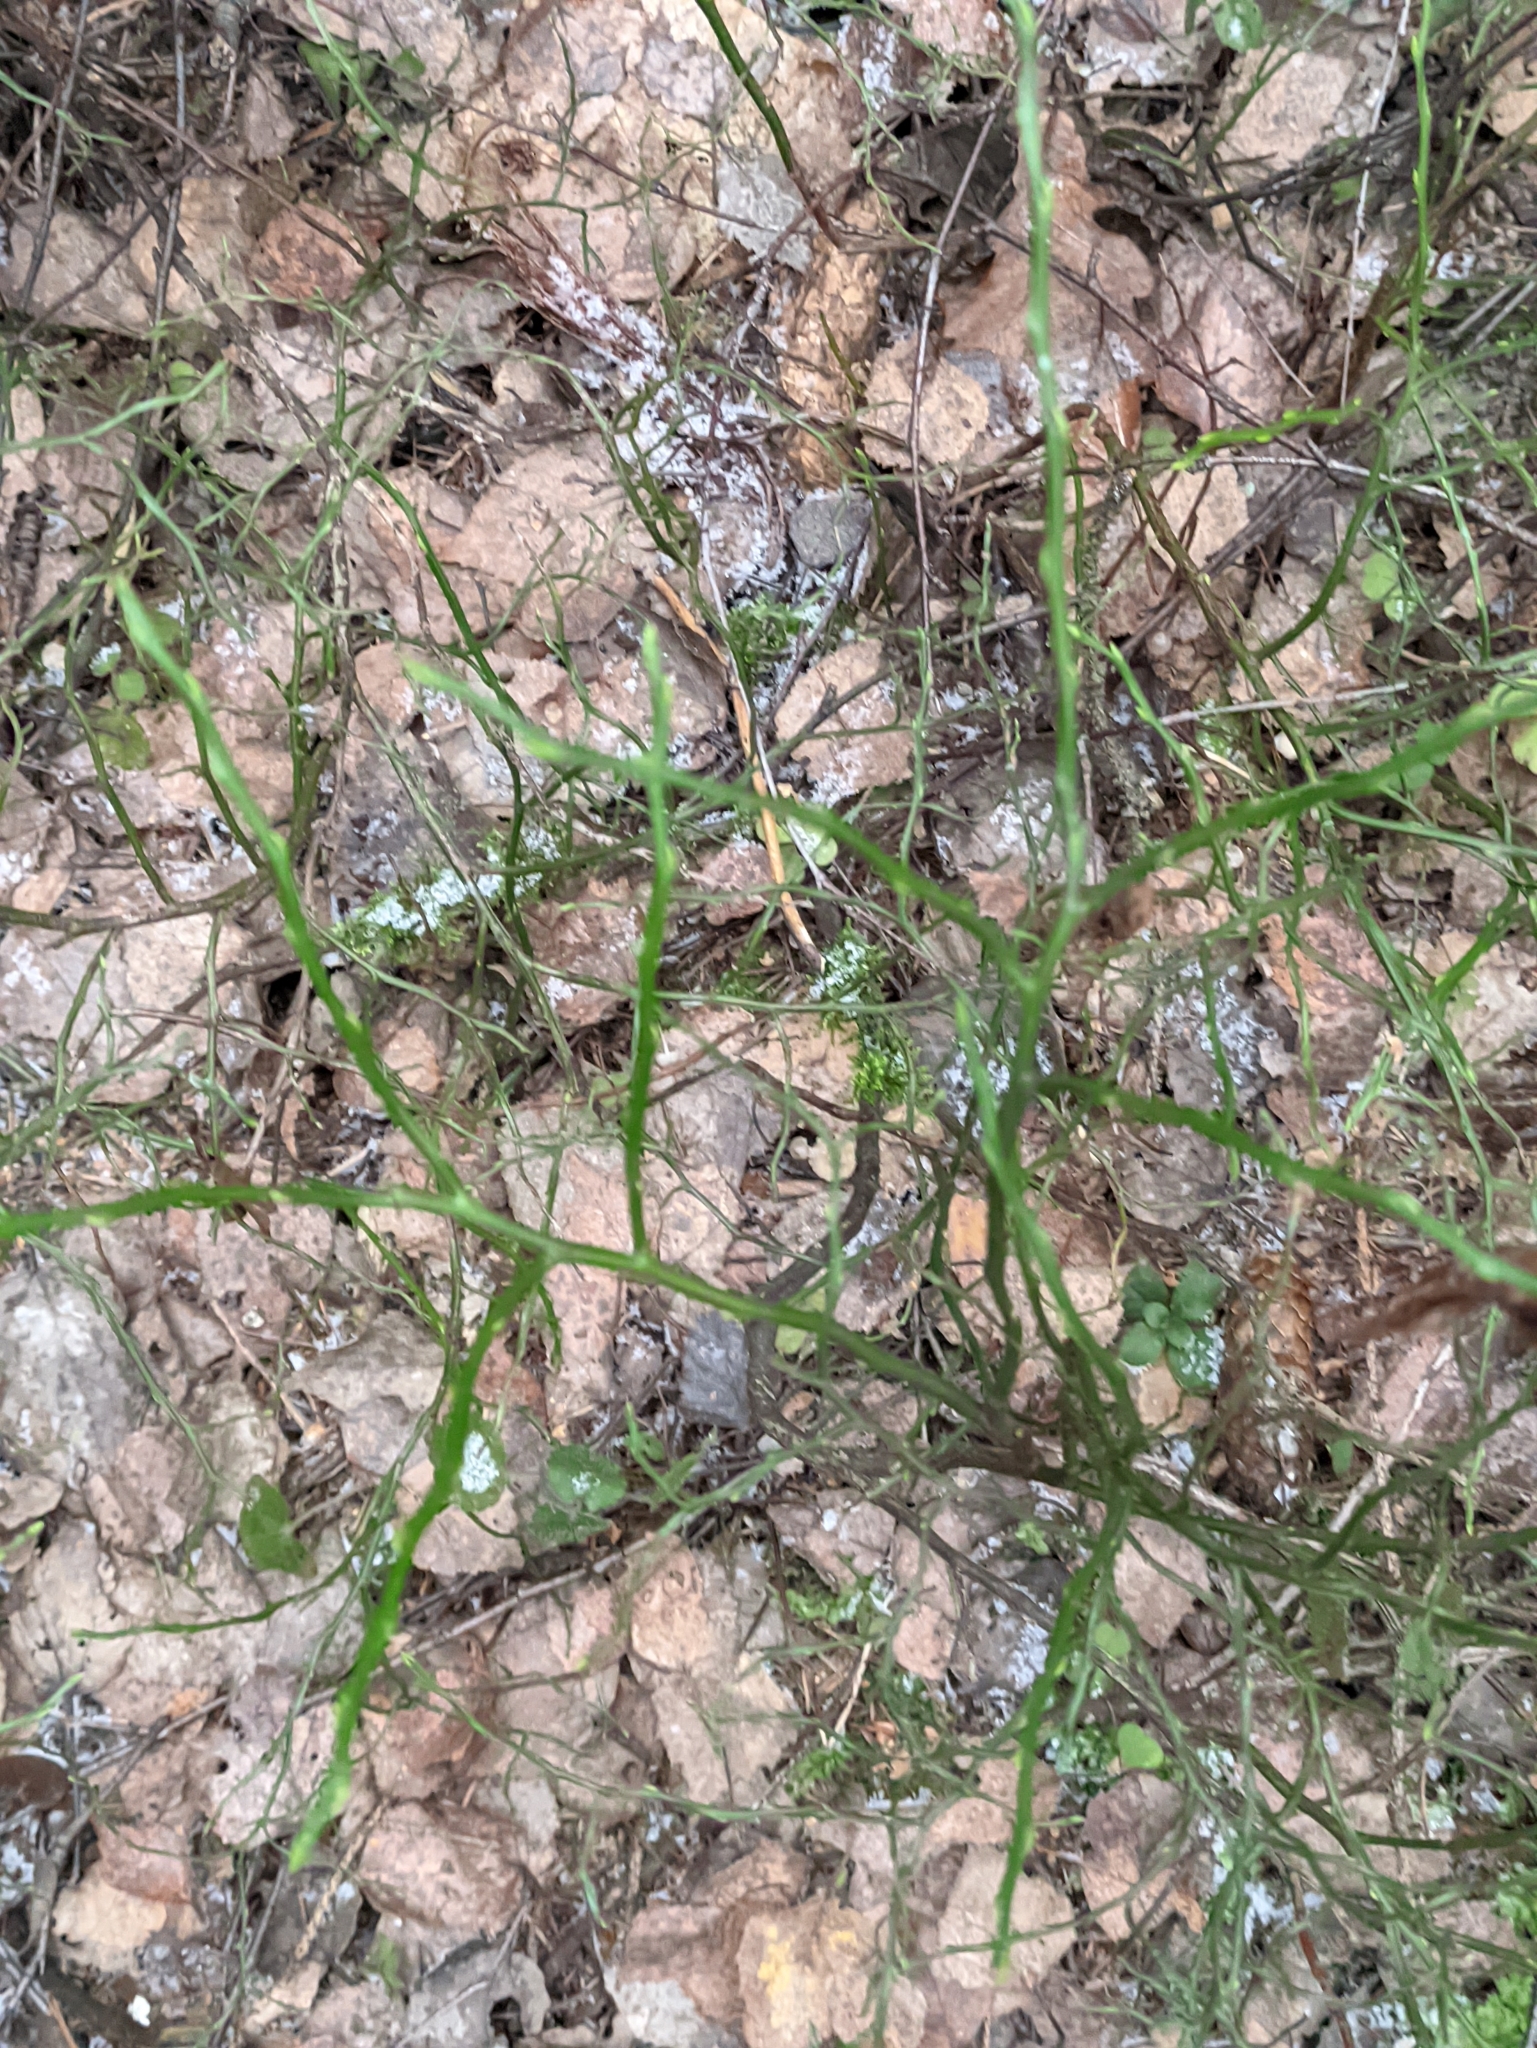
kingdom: Plantae
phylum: Tracheophyta
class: Magnoliopsida
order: Ericales
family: Ericaceae
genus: Vaccinium
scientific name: Vaccinium myrtillus
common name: Bilberry
